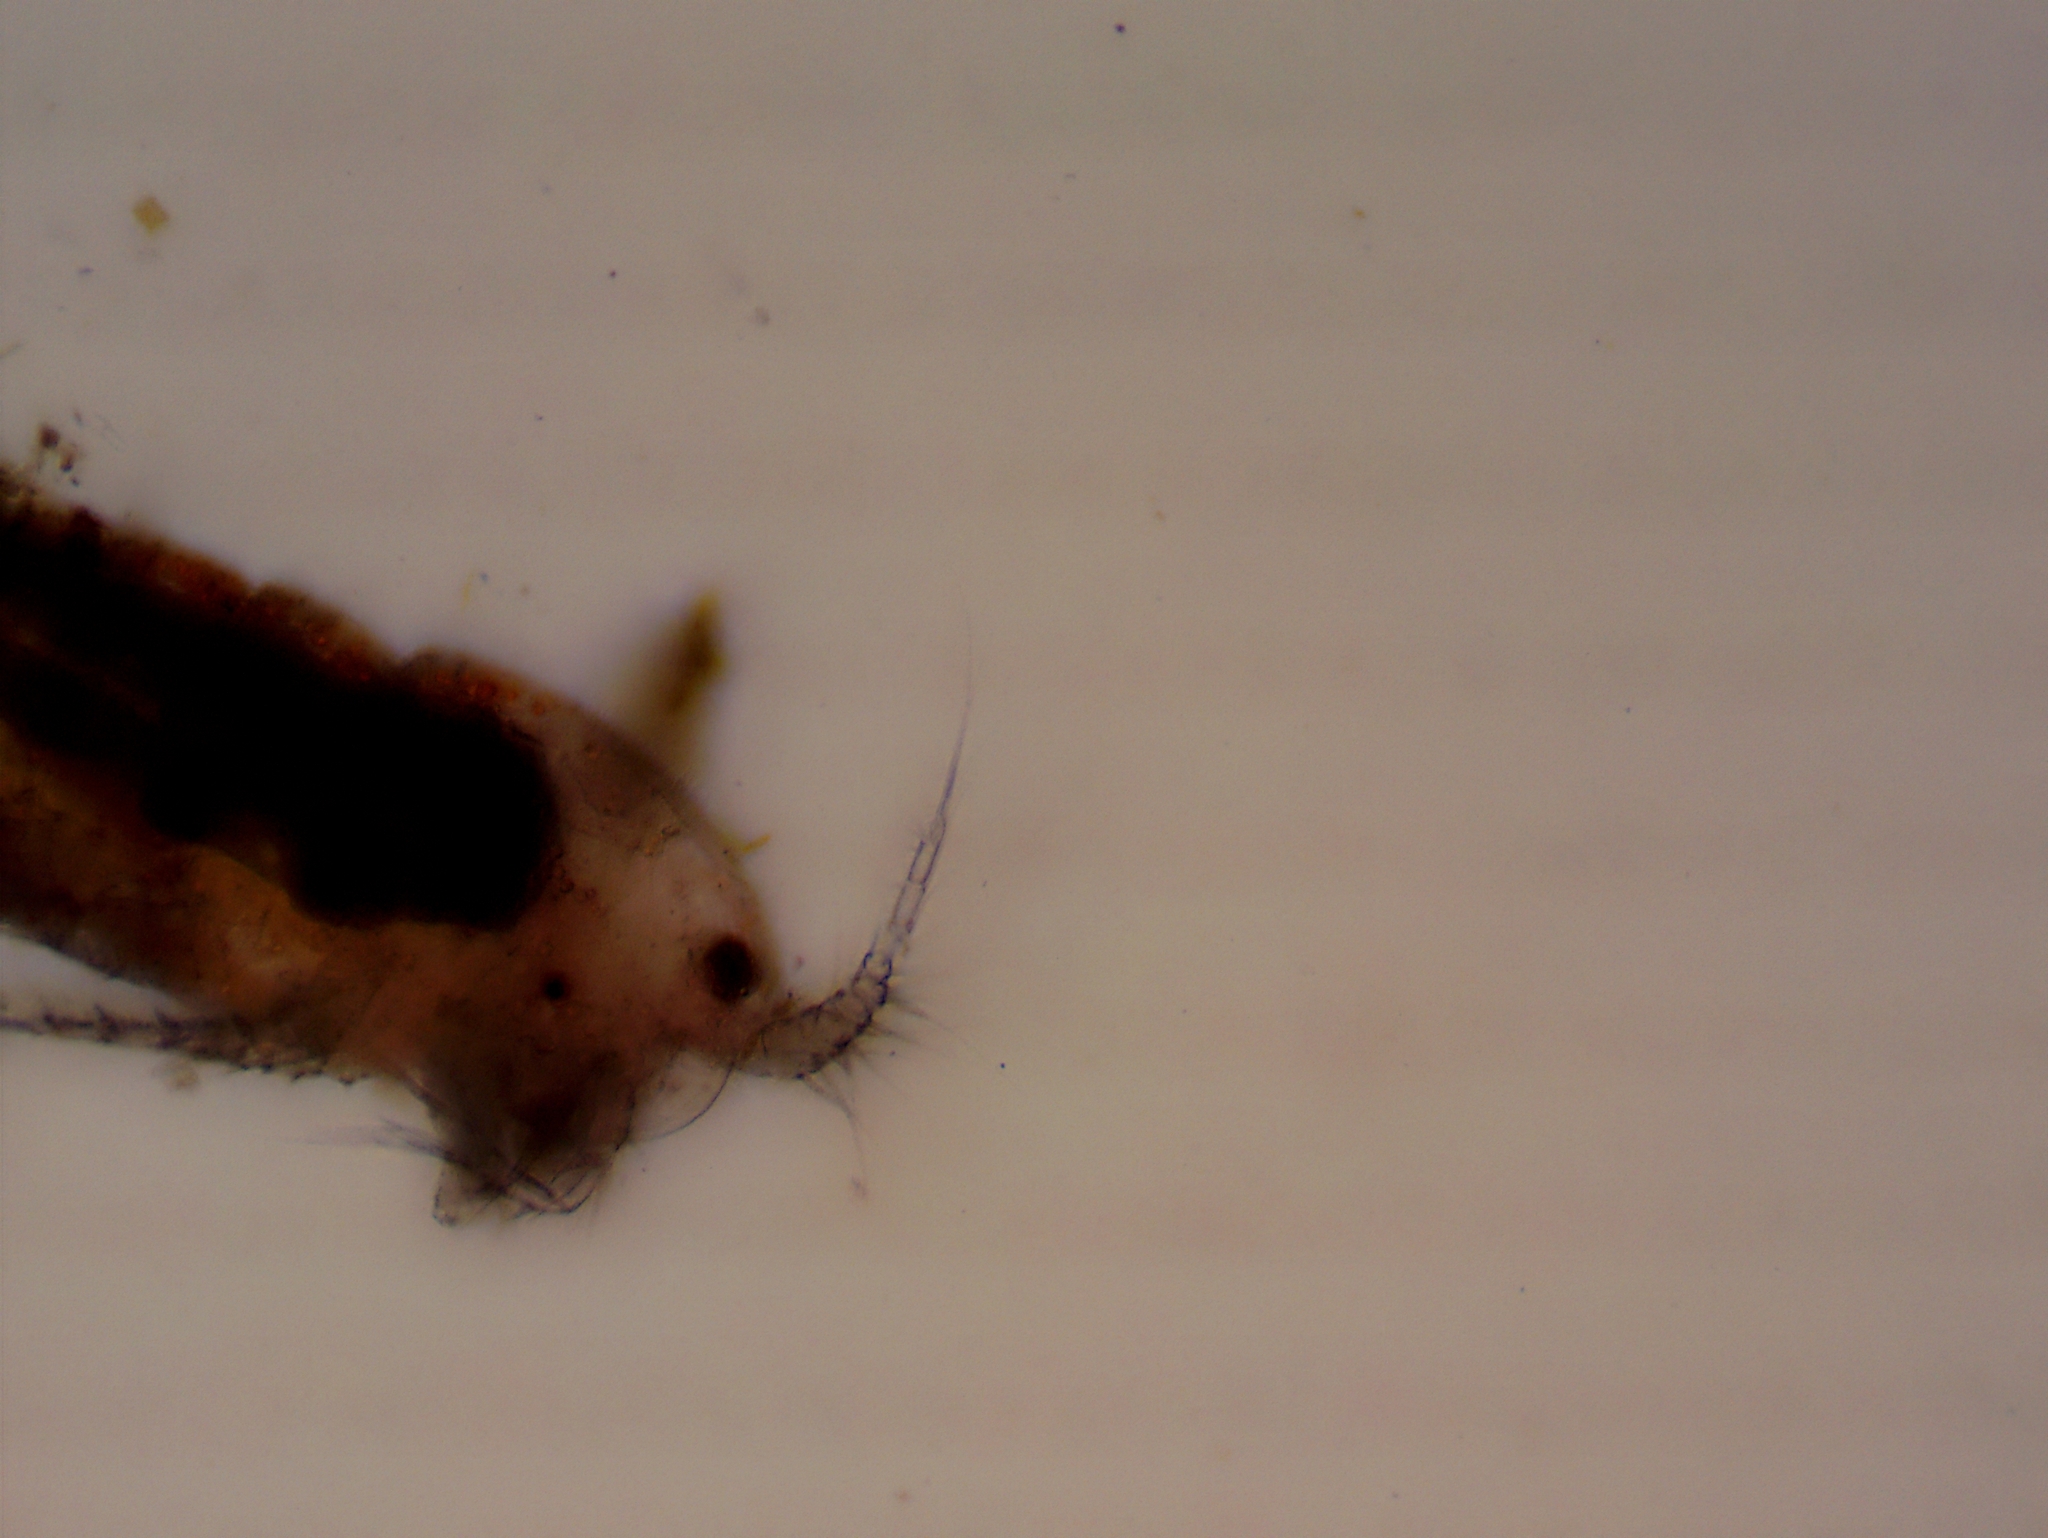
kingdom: Animalia
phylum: Arthropoda
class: Copepoda
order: Harpacticoida
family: Canthocamptidae
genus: Attheyella
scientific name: Attheyella illinoisensis
